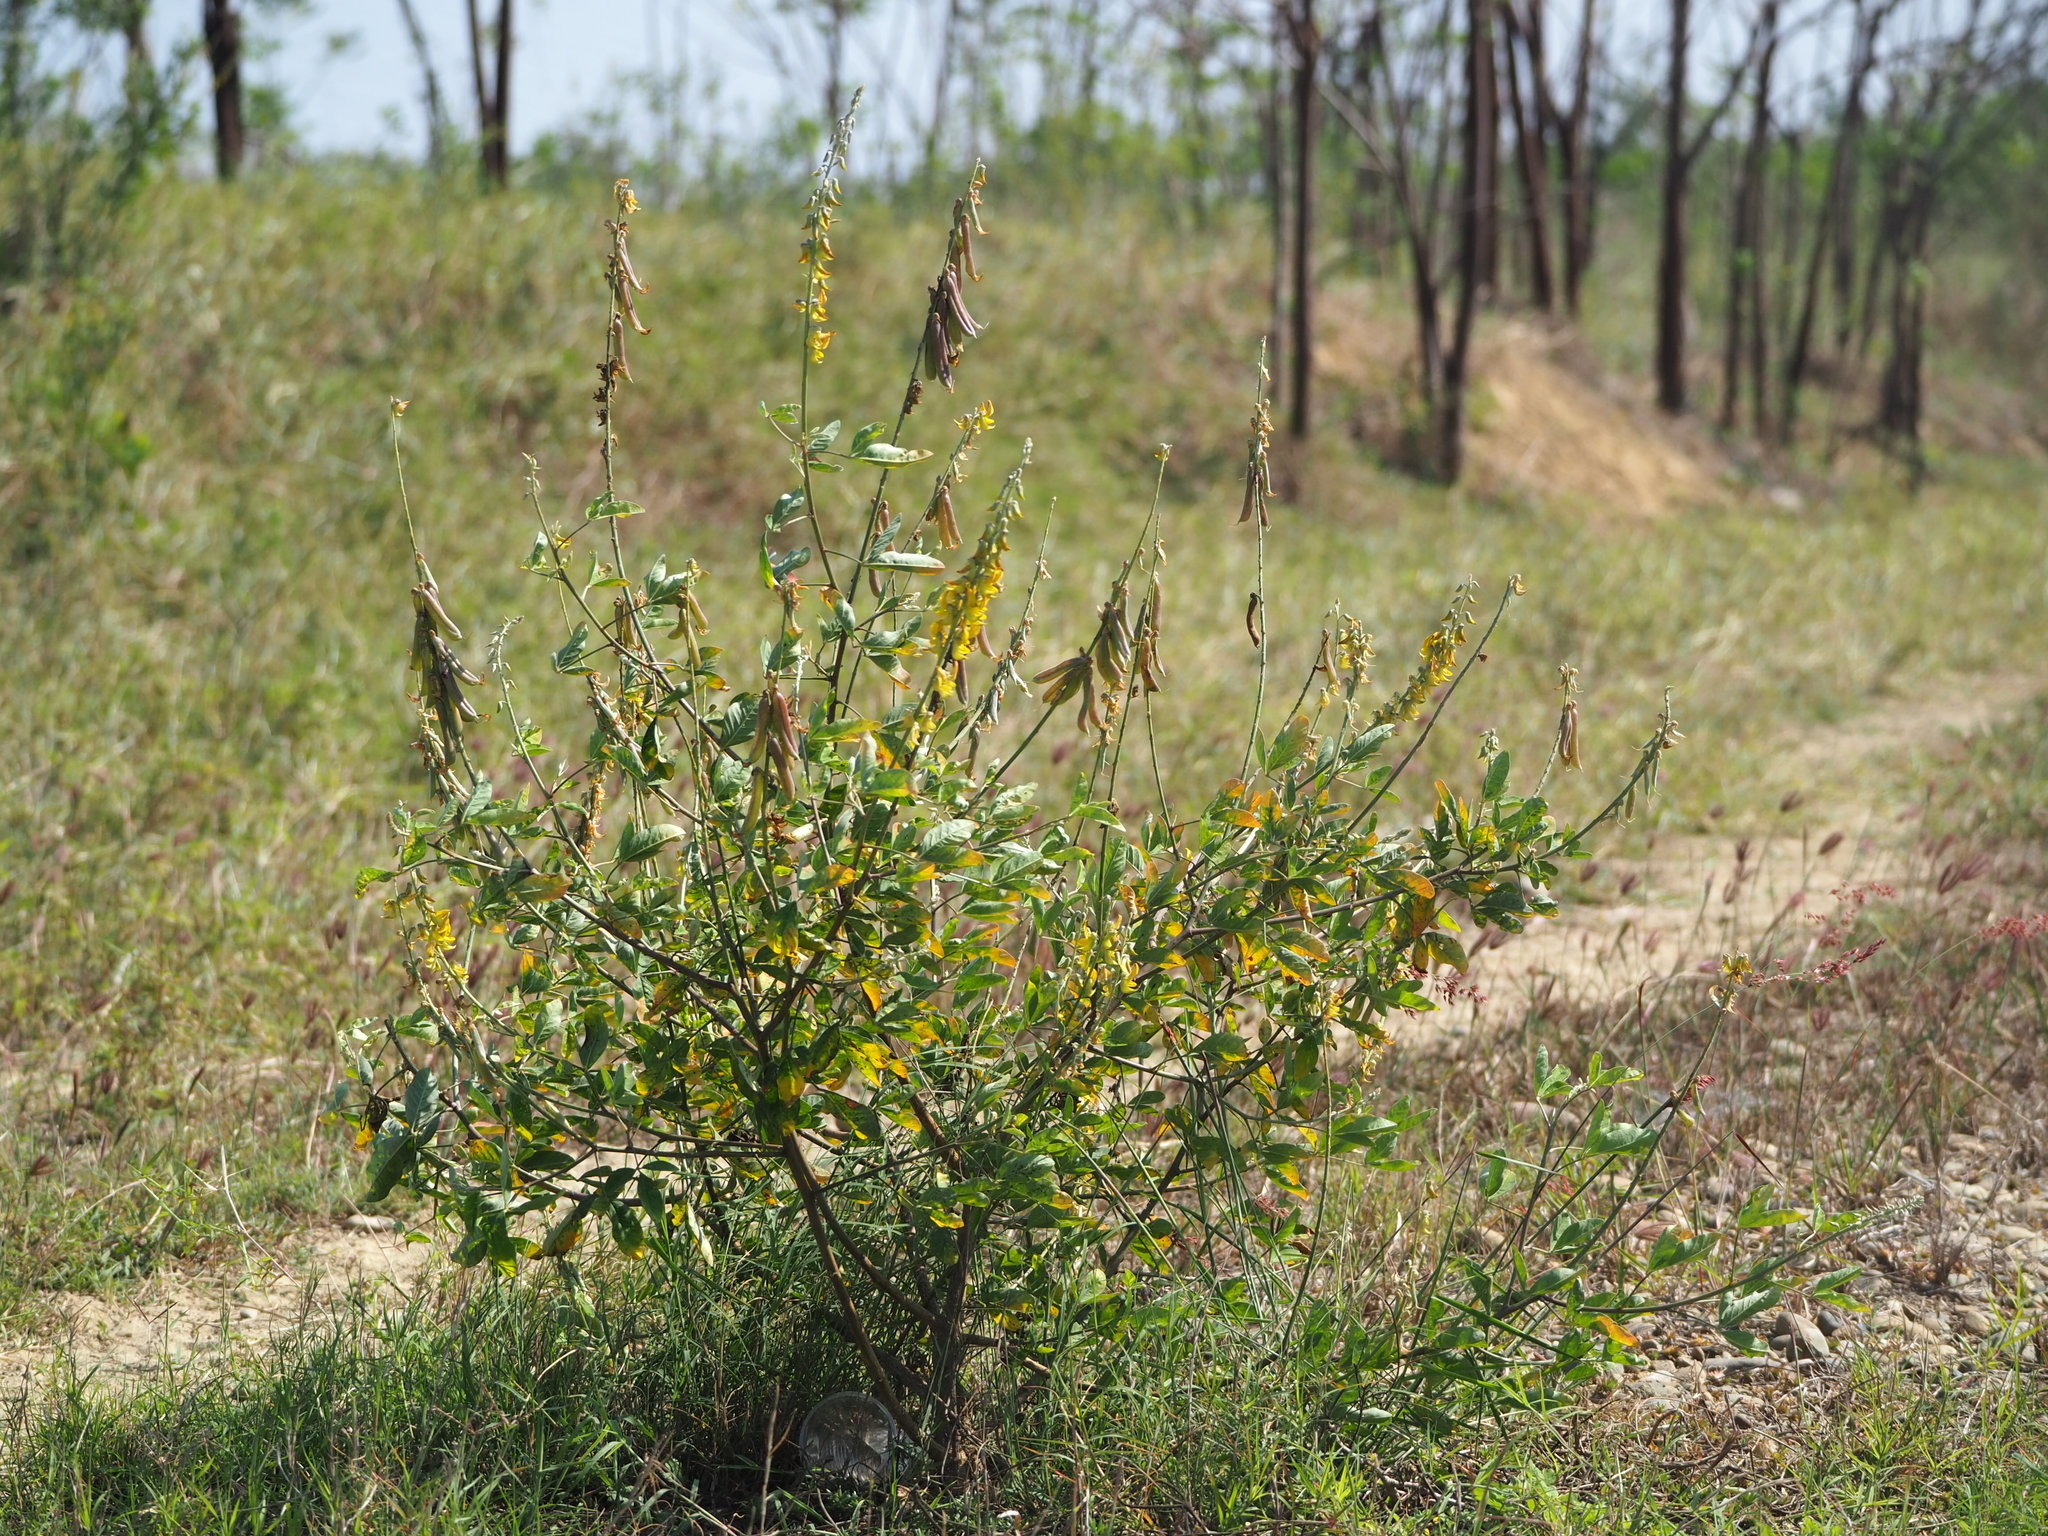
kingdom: Plantae
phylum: Tracheophyta
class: Magnoliopsida
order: Fabales
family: Fabaceae
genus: Crotalaria
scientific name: Crotalaria pallida
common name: Smooth rattlebox
